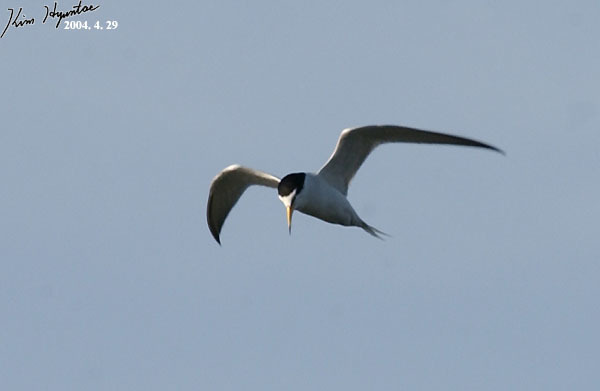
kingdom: Animalia
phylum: Chordata
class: Aves
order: Charadriiformes
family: Laridae
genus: Sternula
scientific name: Sternula albifrons
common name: Little tern
